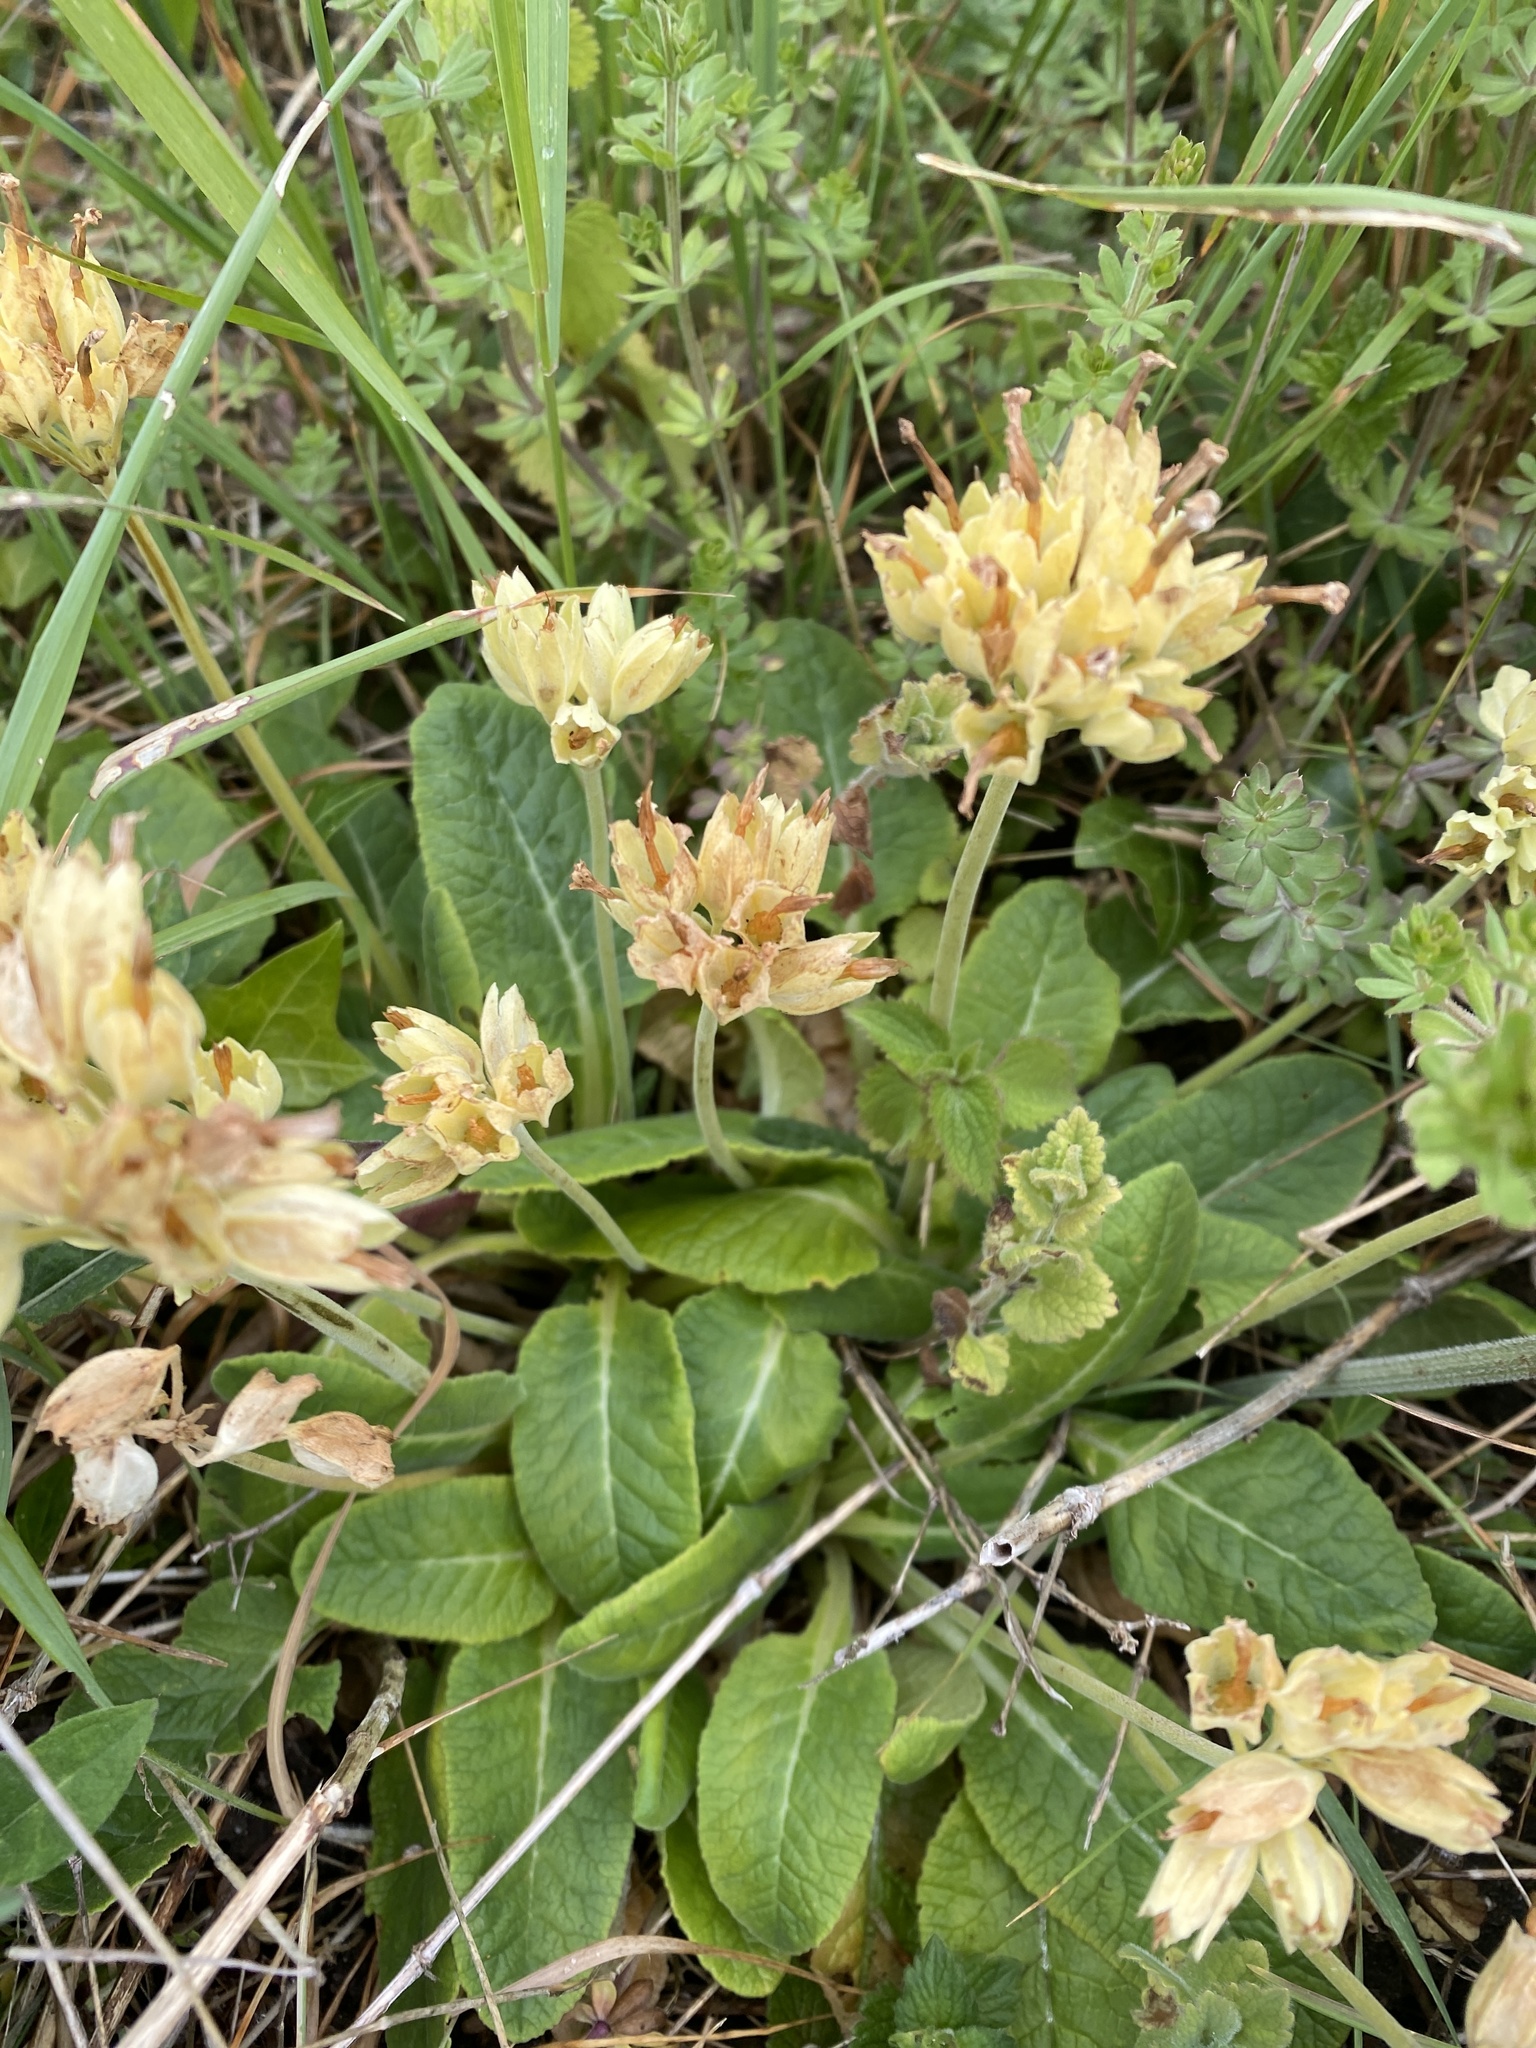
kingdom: Plantae
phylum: Tracheophyta
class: Magnoliopsida
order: Ericales
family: Primulaceae
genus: Primula
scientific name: Primula veris
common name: Cowslip
